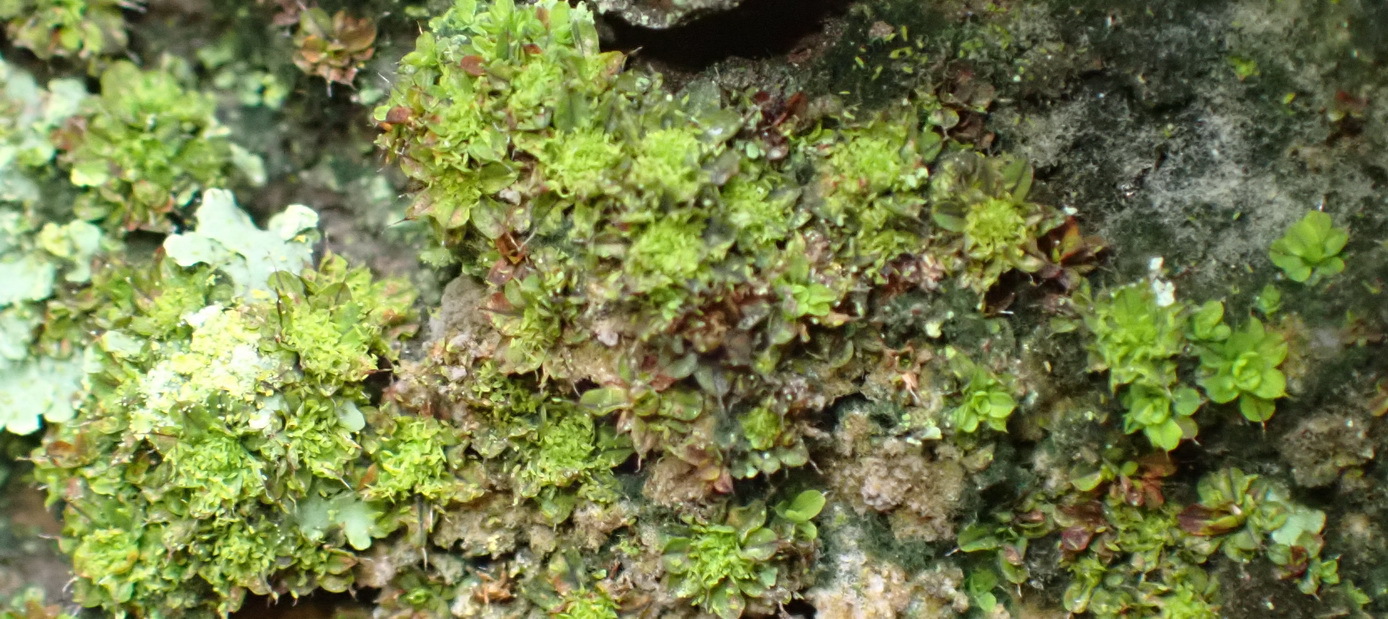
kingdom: Plantae
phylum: Bryophyta
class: Bryopsida
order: Pottiales
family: Pottiaceae
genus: Syntrichia
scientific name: Syntrichia laevipila
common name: Small hairy screw-moss
